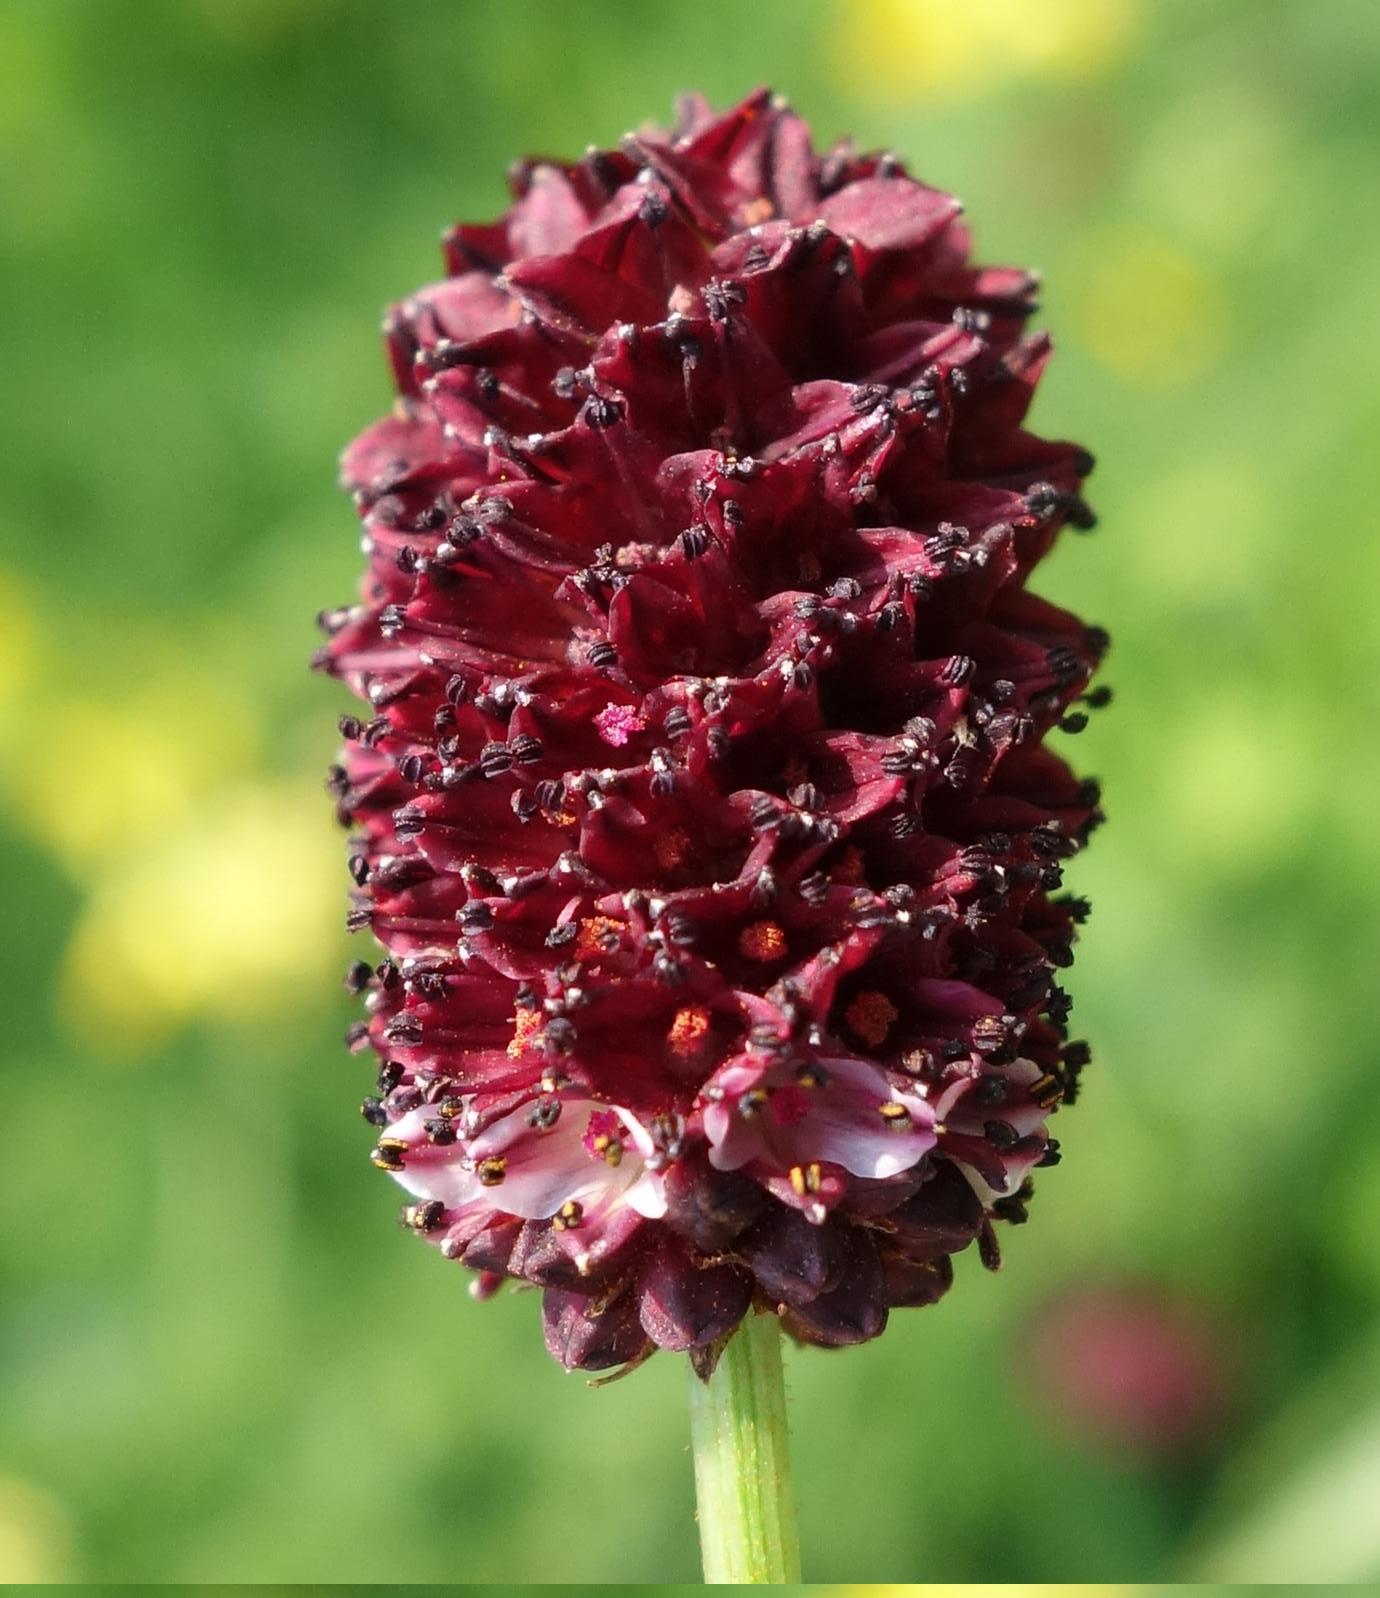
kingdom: Plantae
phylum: Tracheophyta
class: Magnoliopsida
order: Rosales
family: Rosaceae
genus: Sanguisorba
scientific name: Sanguisorba officinalis
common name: Great burnet
